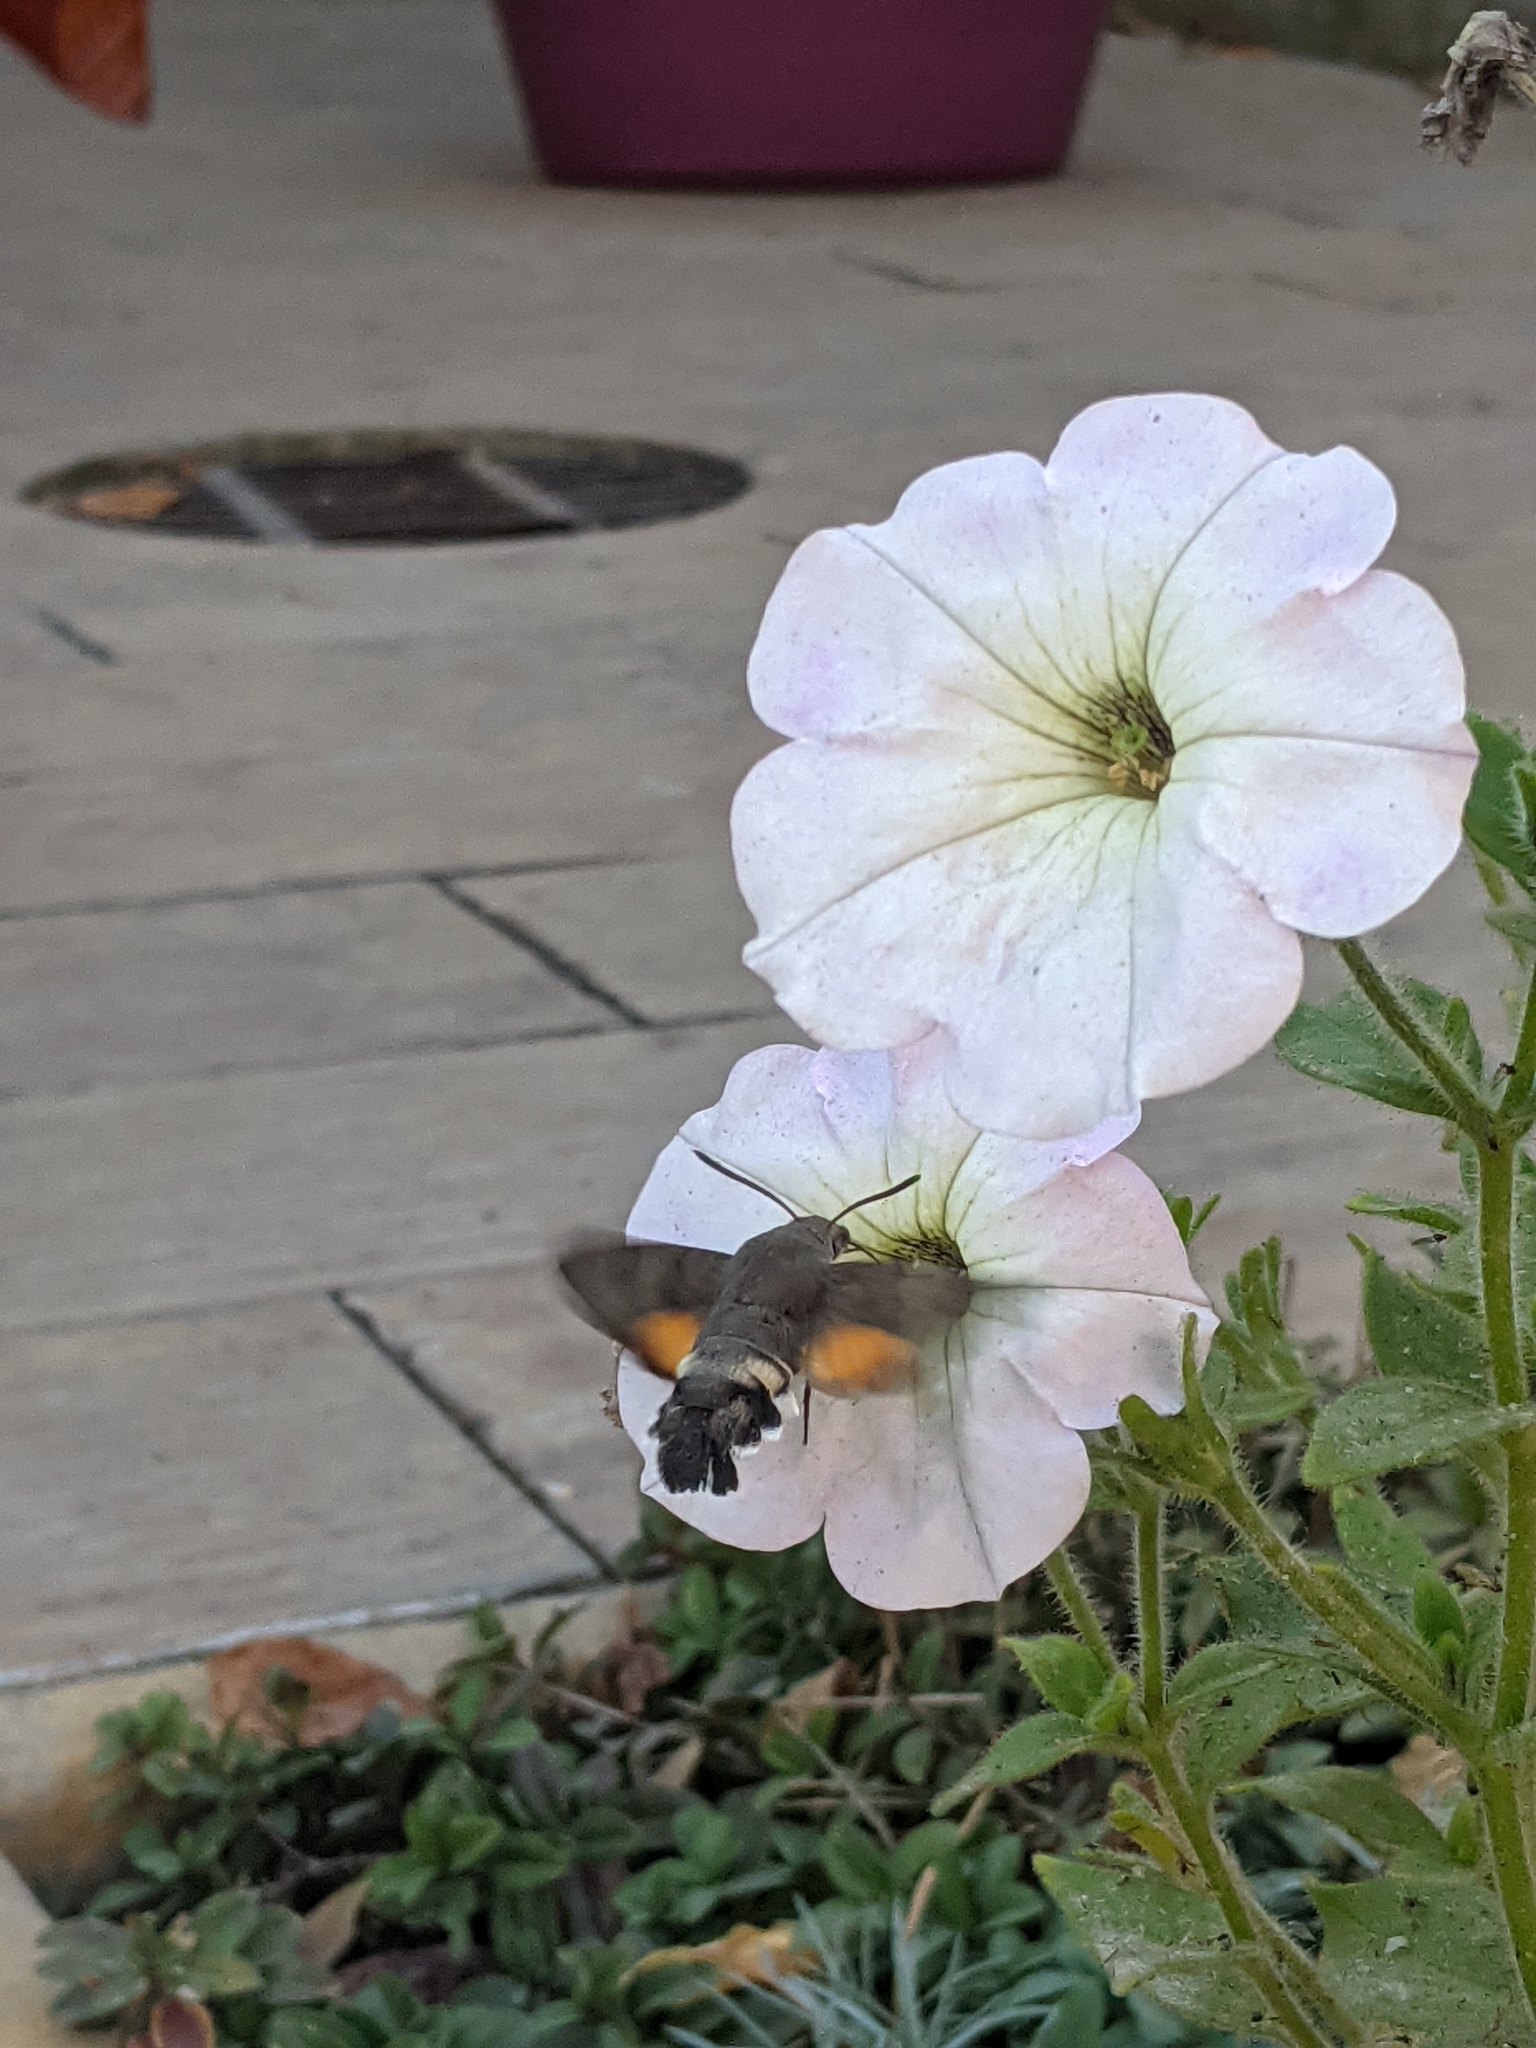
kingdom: Animalia
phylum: Arthropoda
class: Insecta
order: Lepidoptera
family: Sphingidae
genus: Macroglossum
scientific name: Macroglossum stellatarum
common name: Humming-bird hawk-moth
